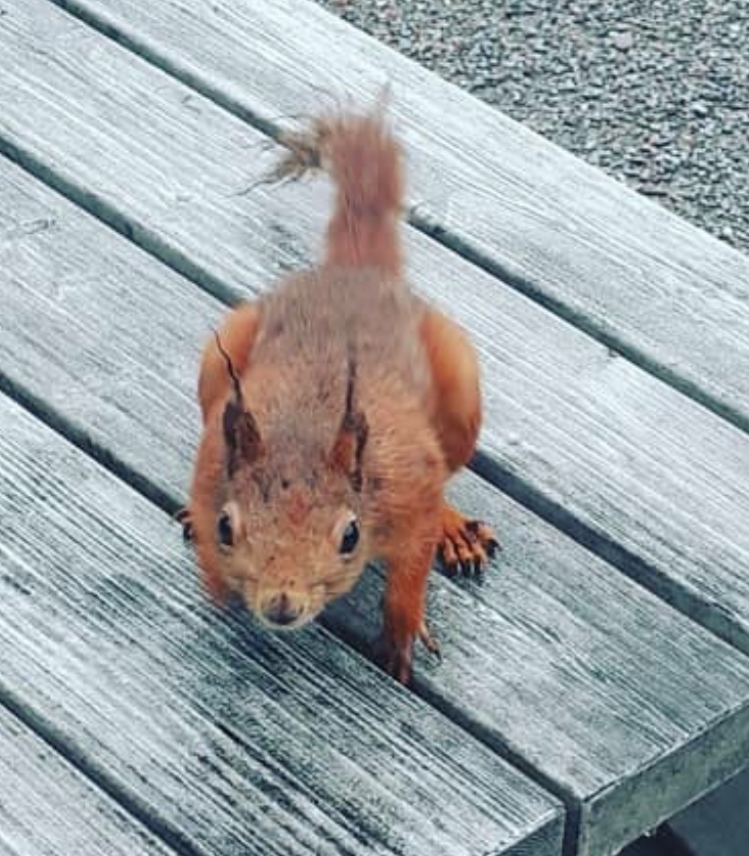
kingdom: Animalia
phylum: Chordata
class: Mammalia
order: Rodentia
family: Sciuridae
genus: Sciurus
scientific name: Sciurus vulgaris
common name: Eurasian red squirrel
